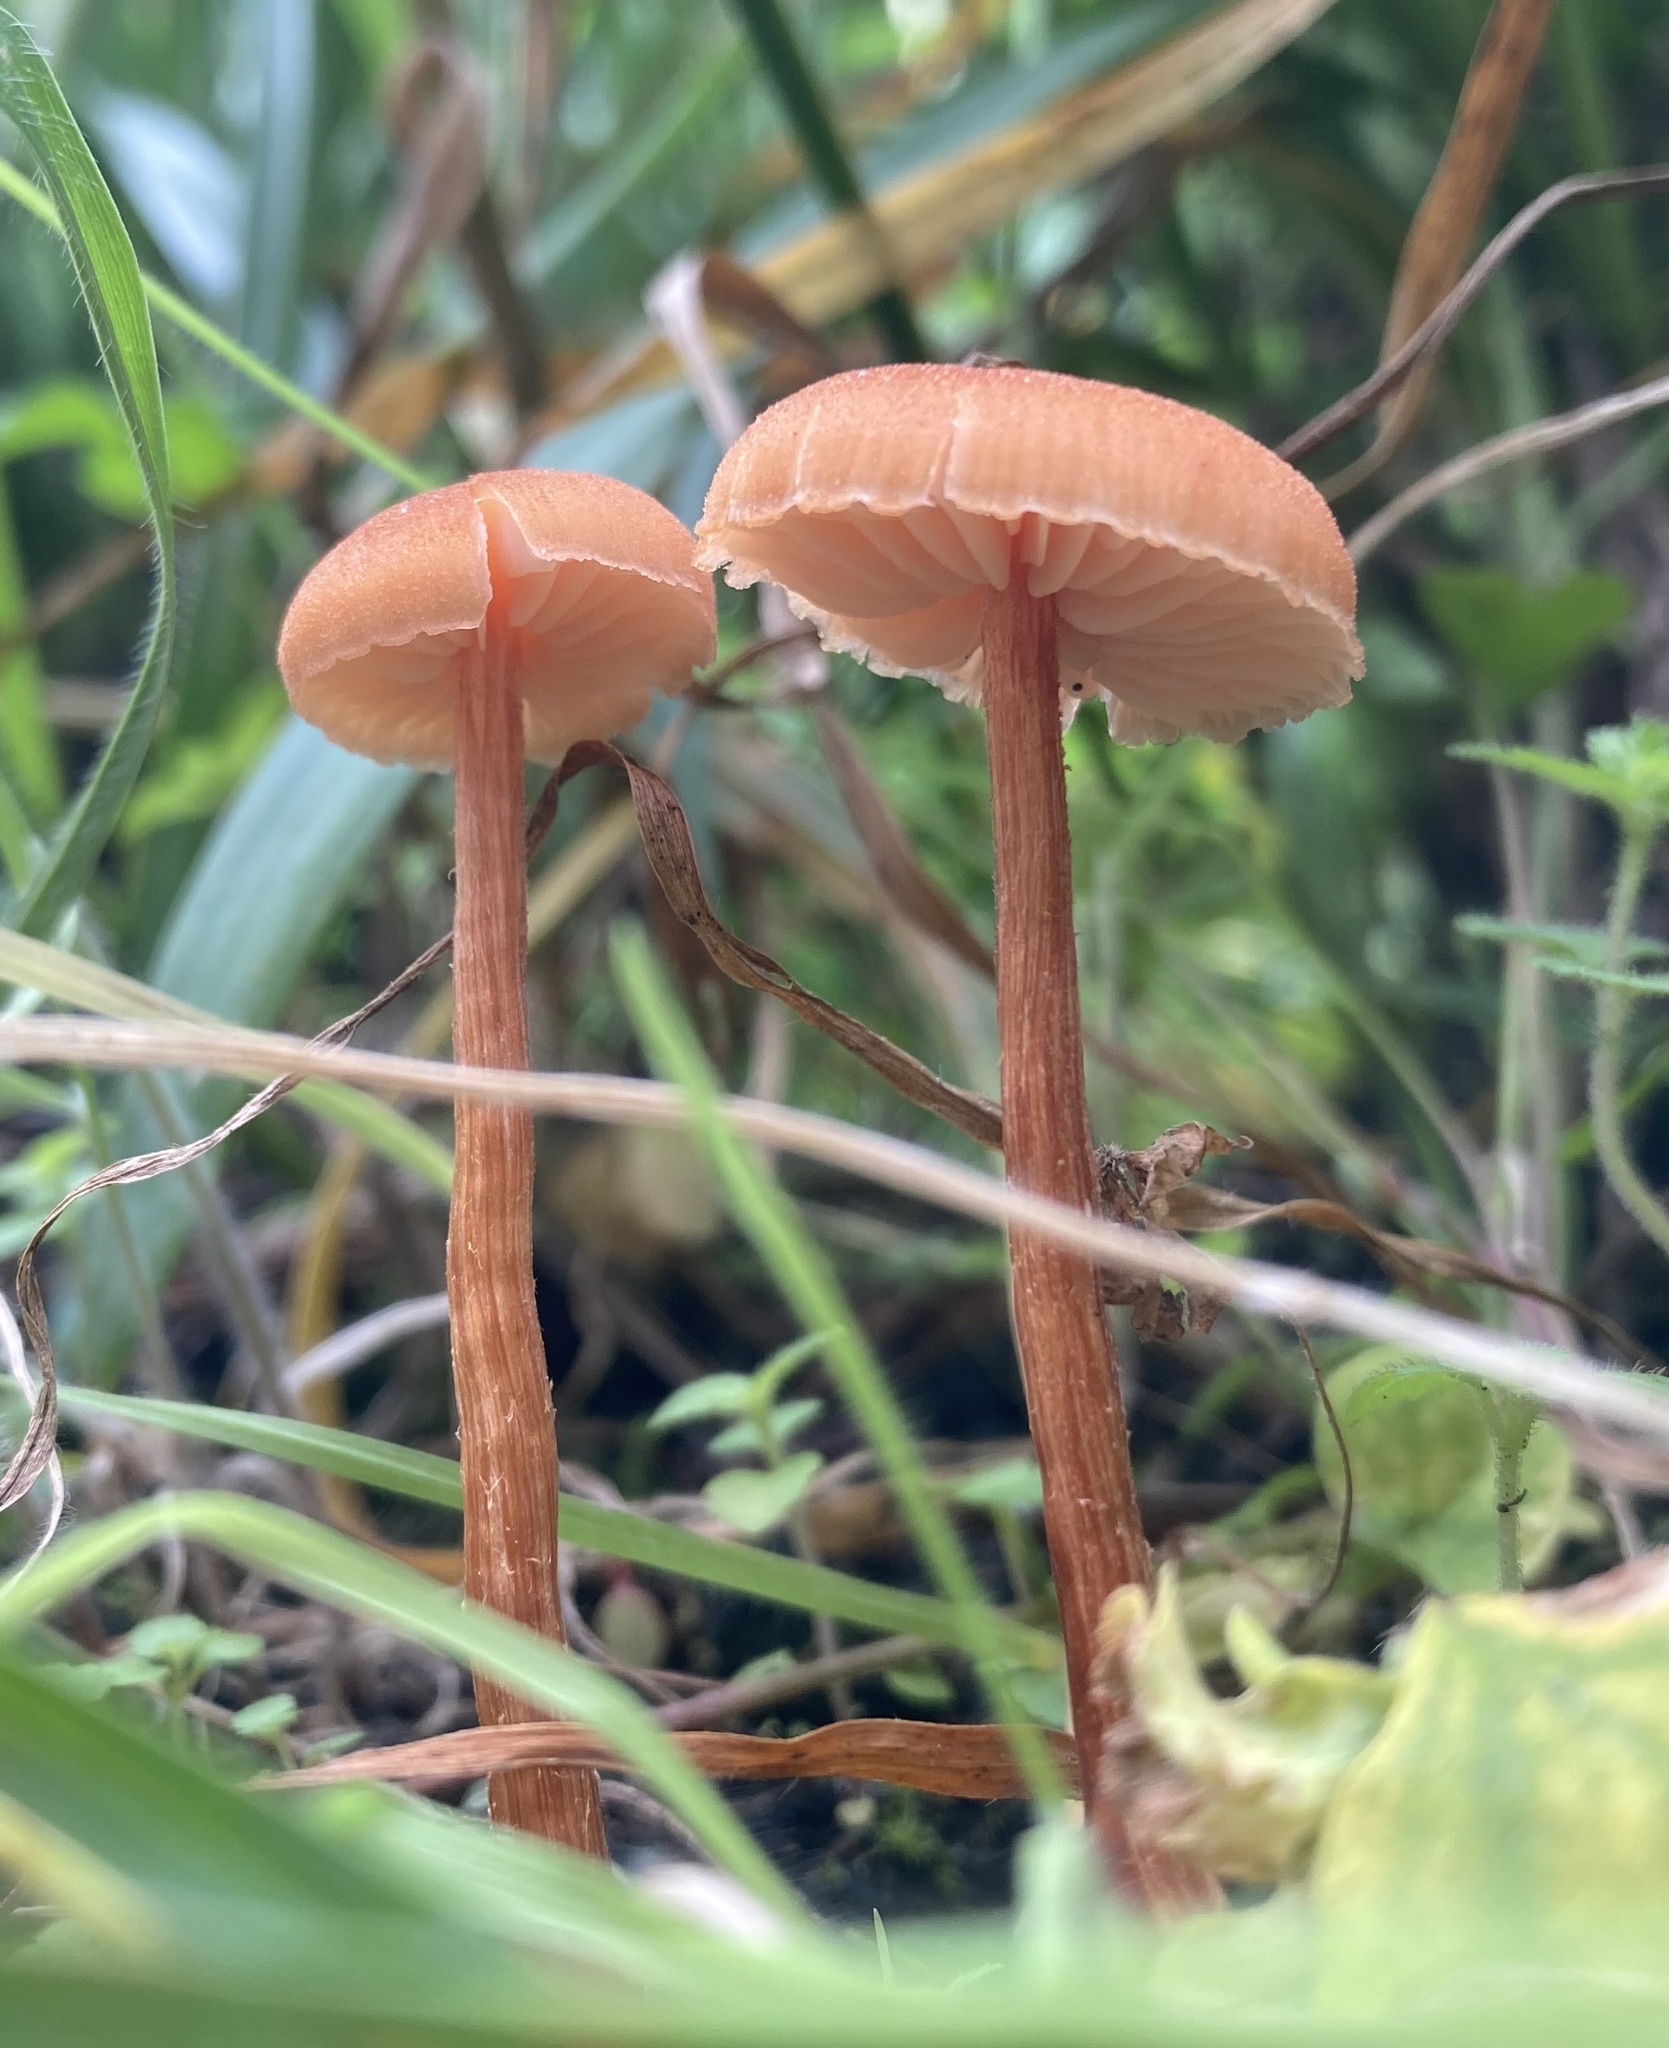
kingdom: Fungi
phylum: Basidiomycota
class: Agaricomycetes
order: Agaricales
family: Hydnangiaceae
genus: Laccaria
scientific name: Laccaria laccata
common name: Deceiver
